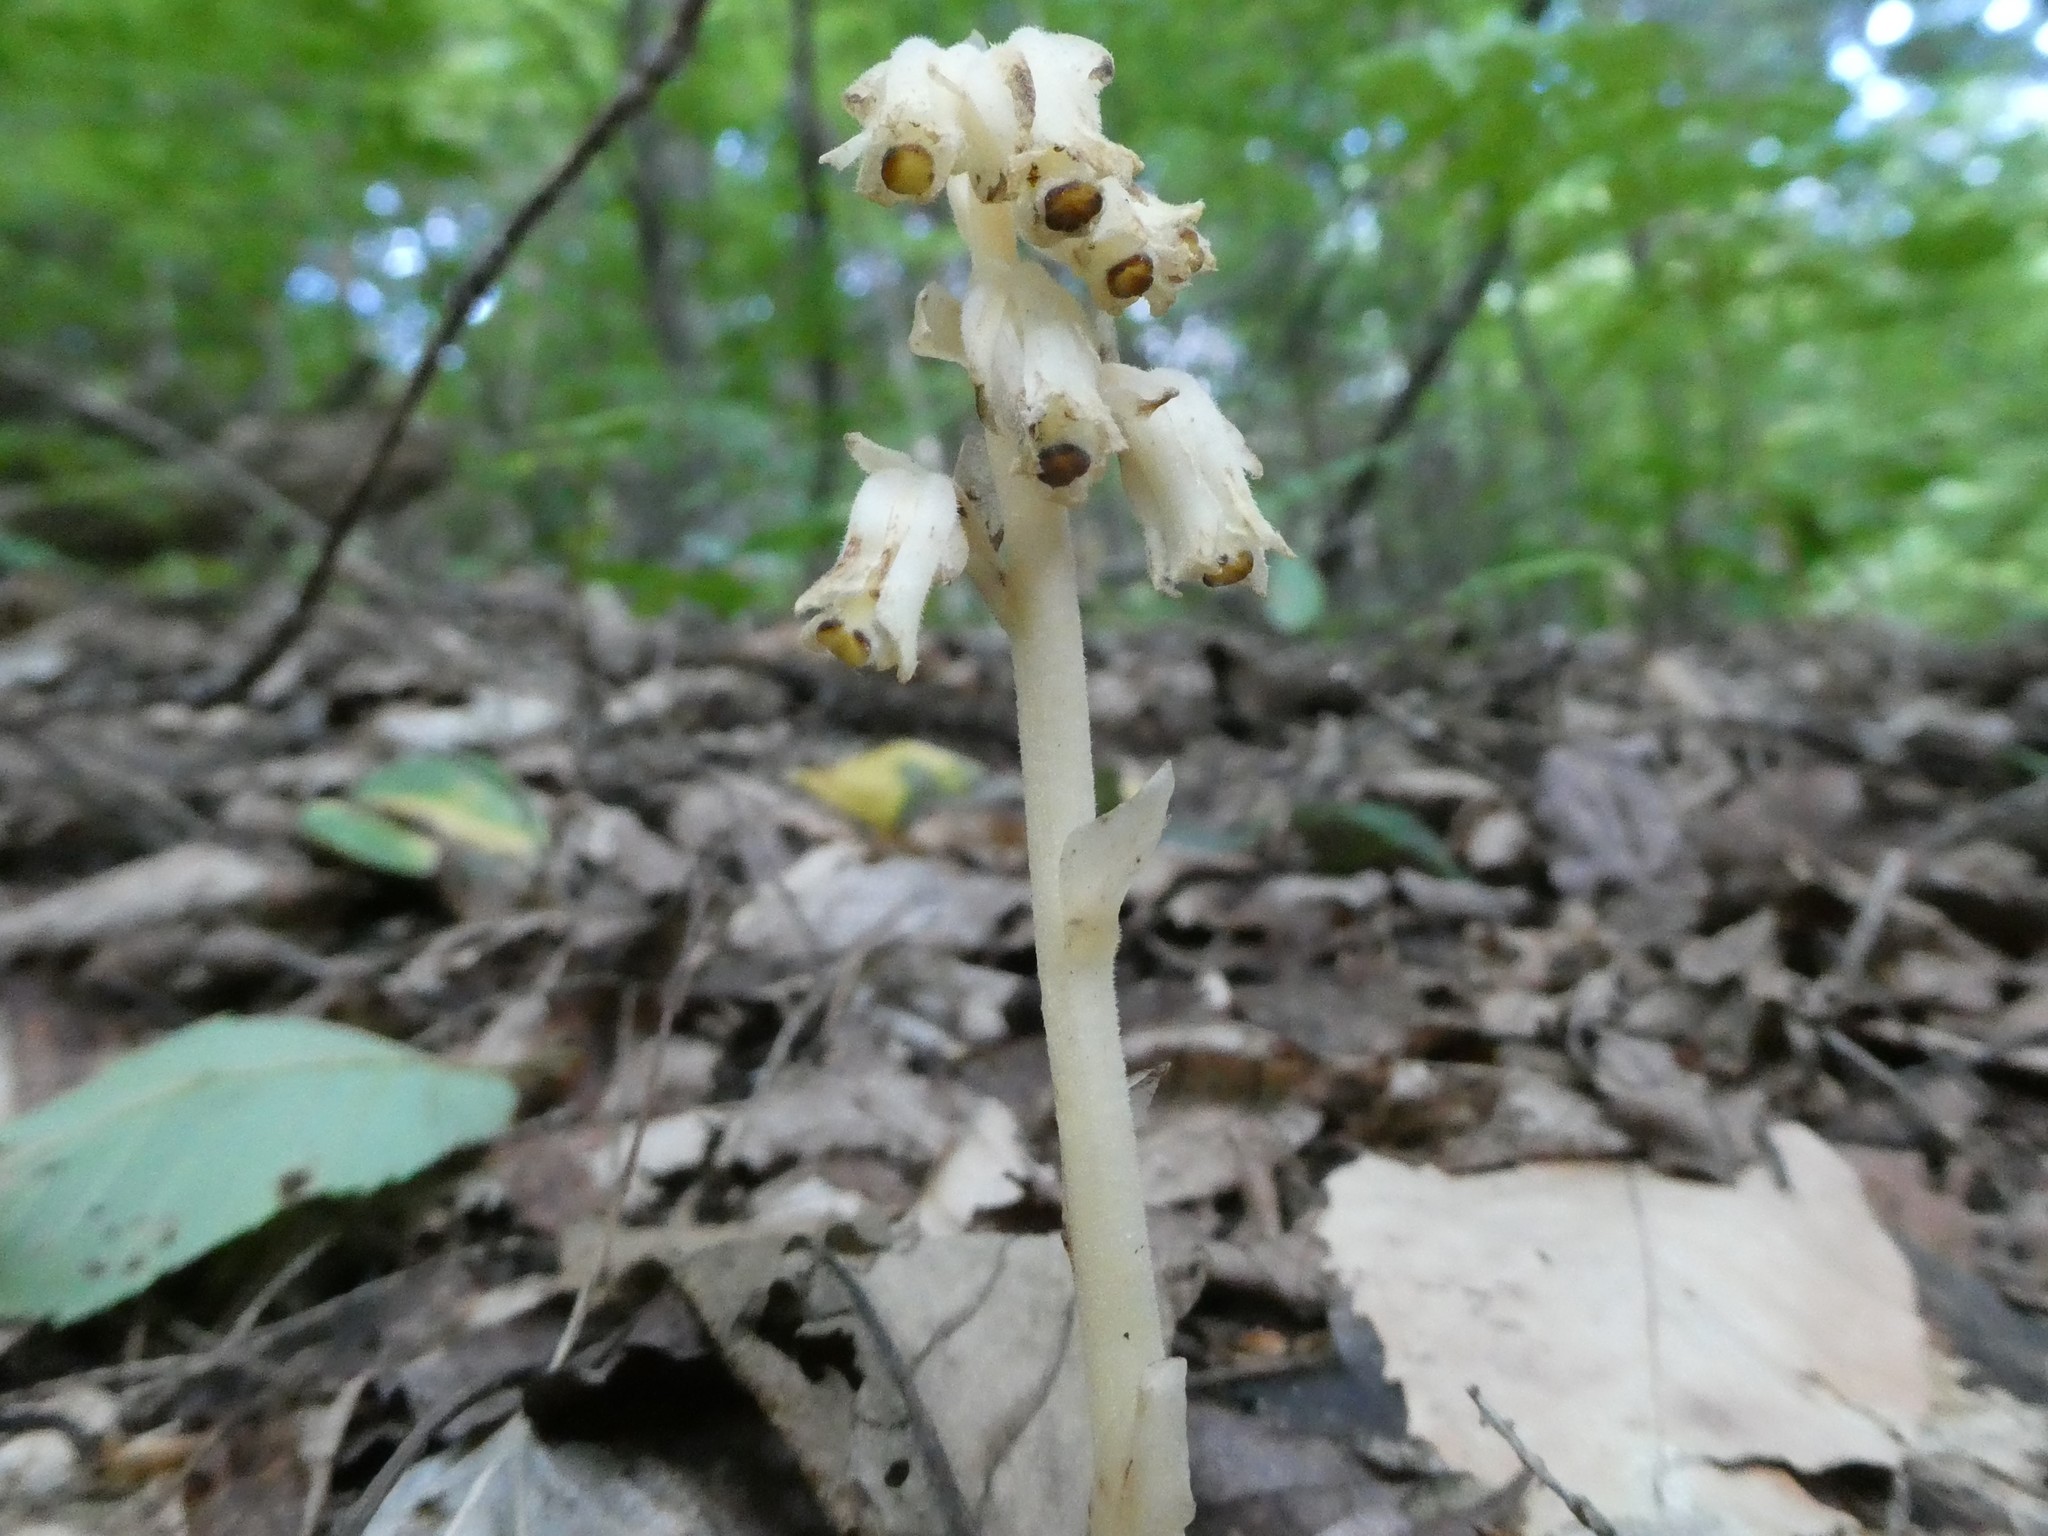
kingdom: Plantae
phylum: Tracheophyta
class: Magnoliopsida
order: Ericales
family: Ericaceae
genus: Hypopitys
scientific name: Hypopitys monotropa
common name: Yellow bird's-nest
